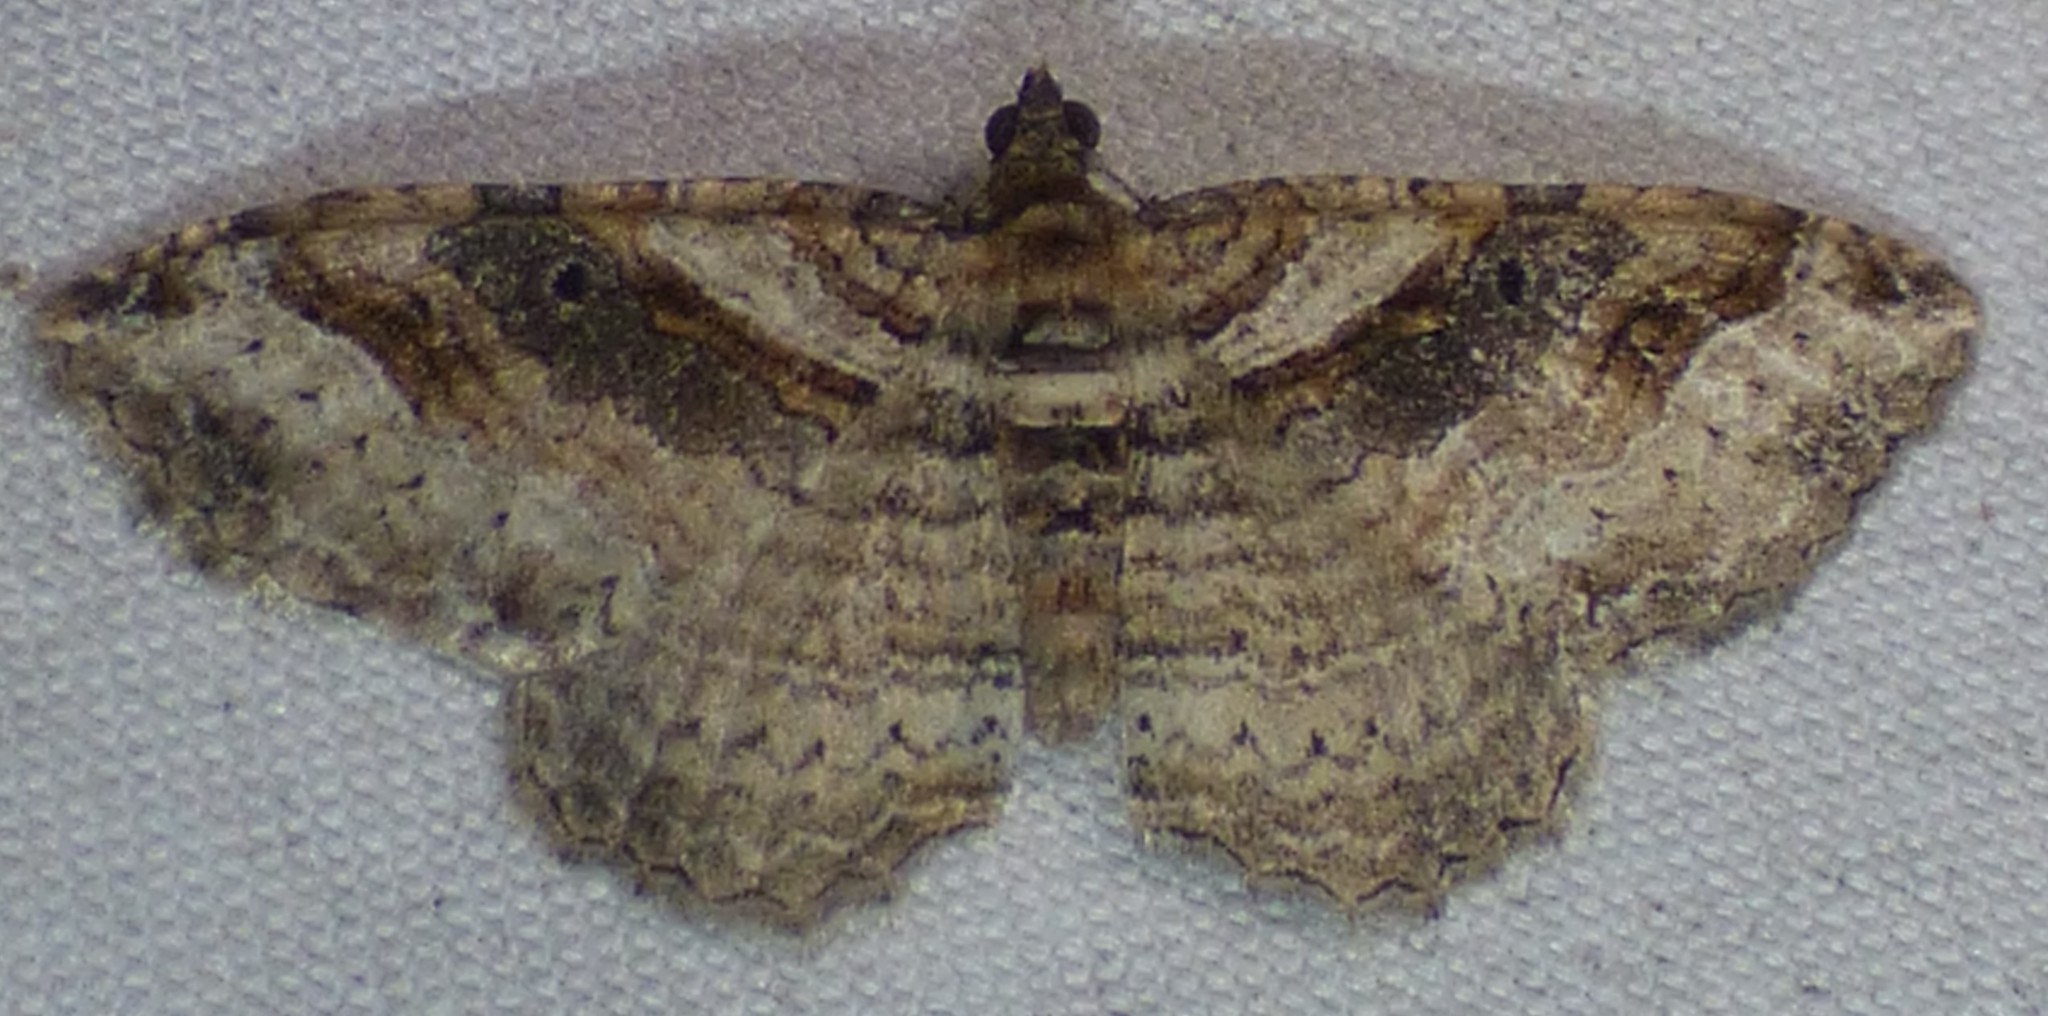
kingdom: Animalia
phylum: Arthropoda
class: Insecta
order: Lepidoptera
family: Geometridae
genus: Costaconvexa
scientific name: Costaconvexa centrostrigaria
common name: Bent-line carpet
